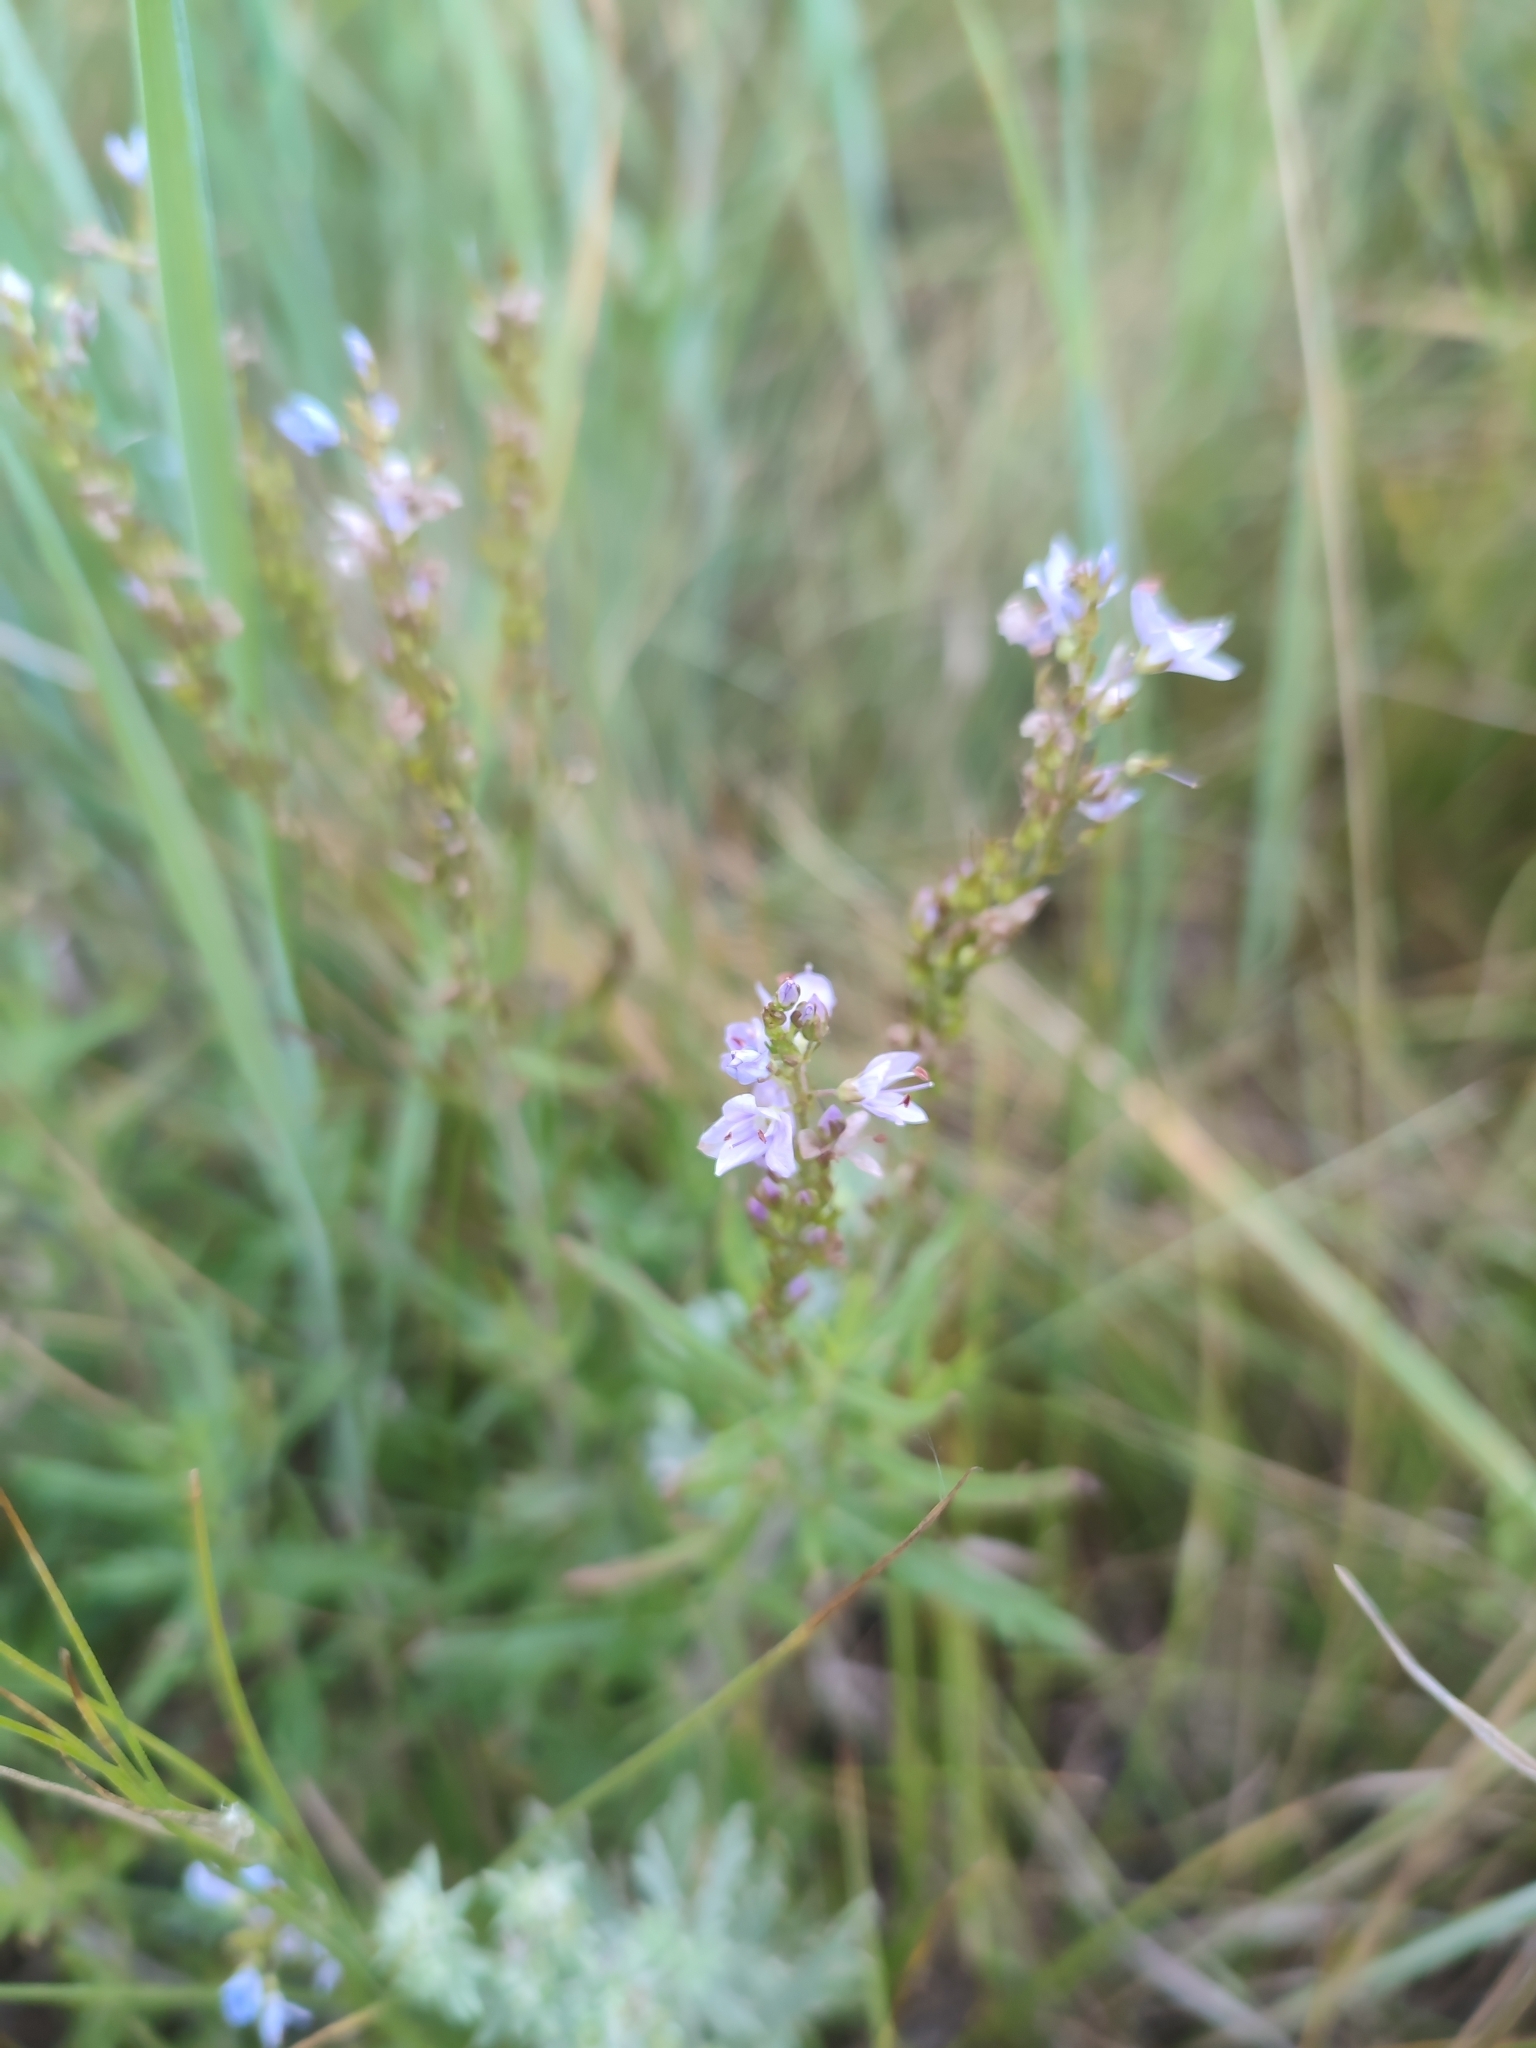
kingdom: Plantae
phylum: Tracheophyta
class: Magnoliopsida
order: Lamiales
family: Plantaginaceae
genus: Veronica
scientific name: Veronica austriaca
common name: Large speedwell
